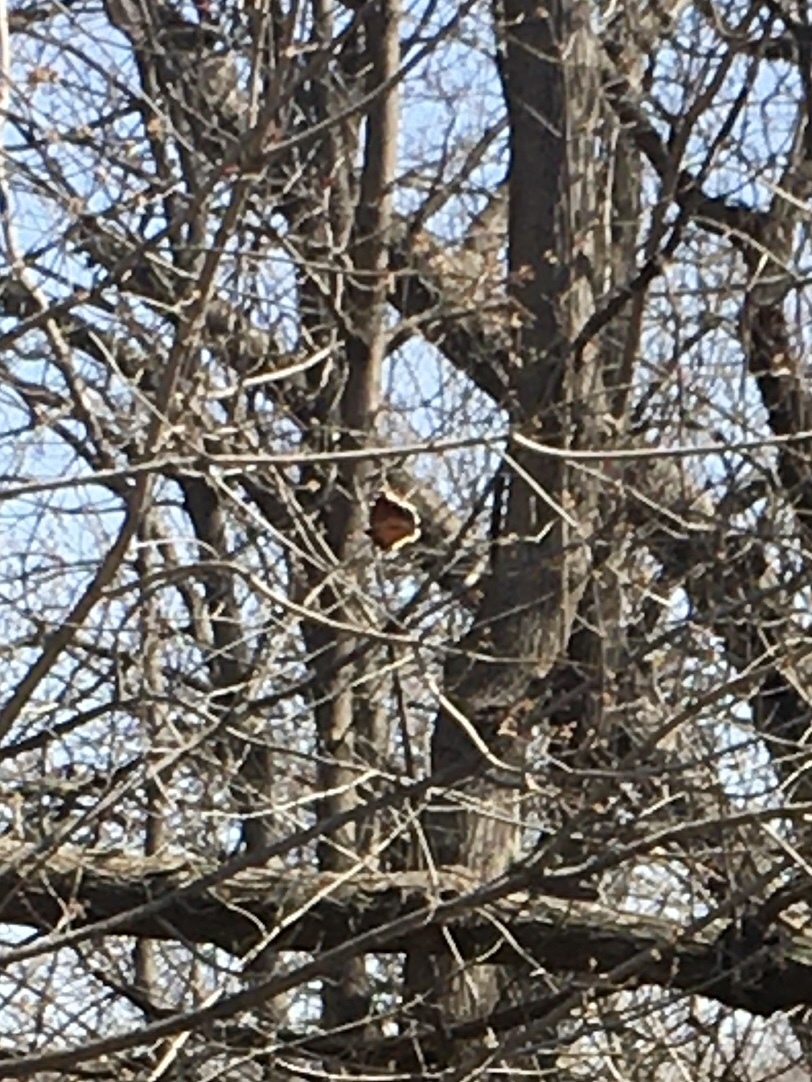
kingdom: Animalia
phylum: Arthropoda
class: Insecta
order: Lepidoptera
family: Nymphalidae
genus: Nymphalis
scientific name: Nymphalis antiopa
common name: Camberwell beauty
